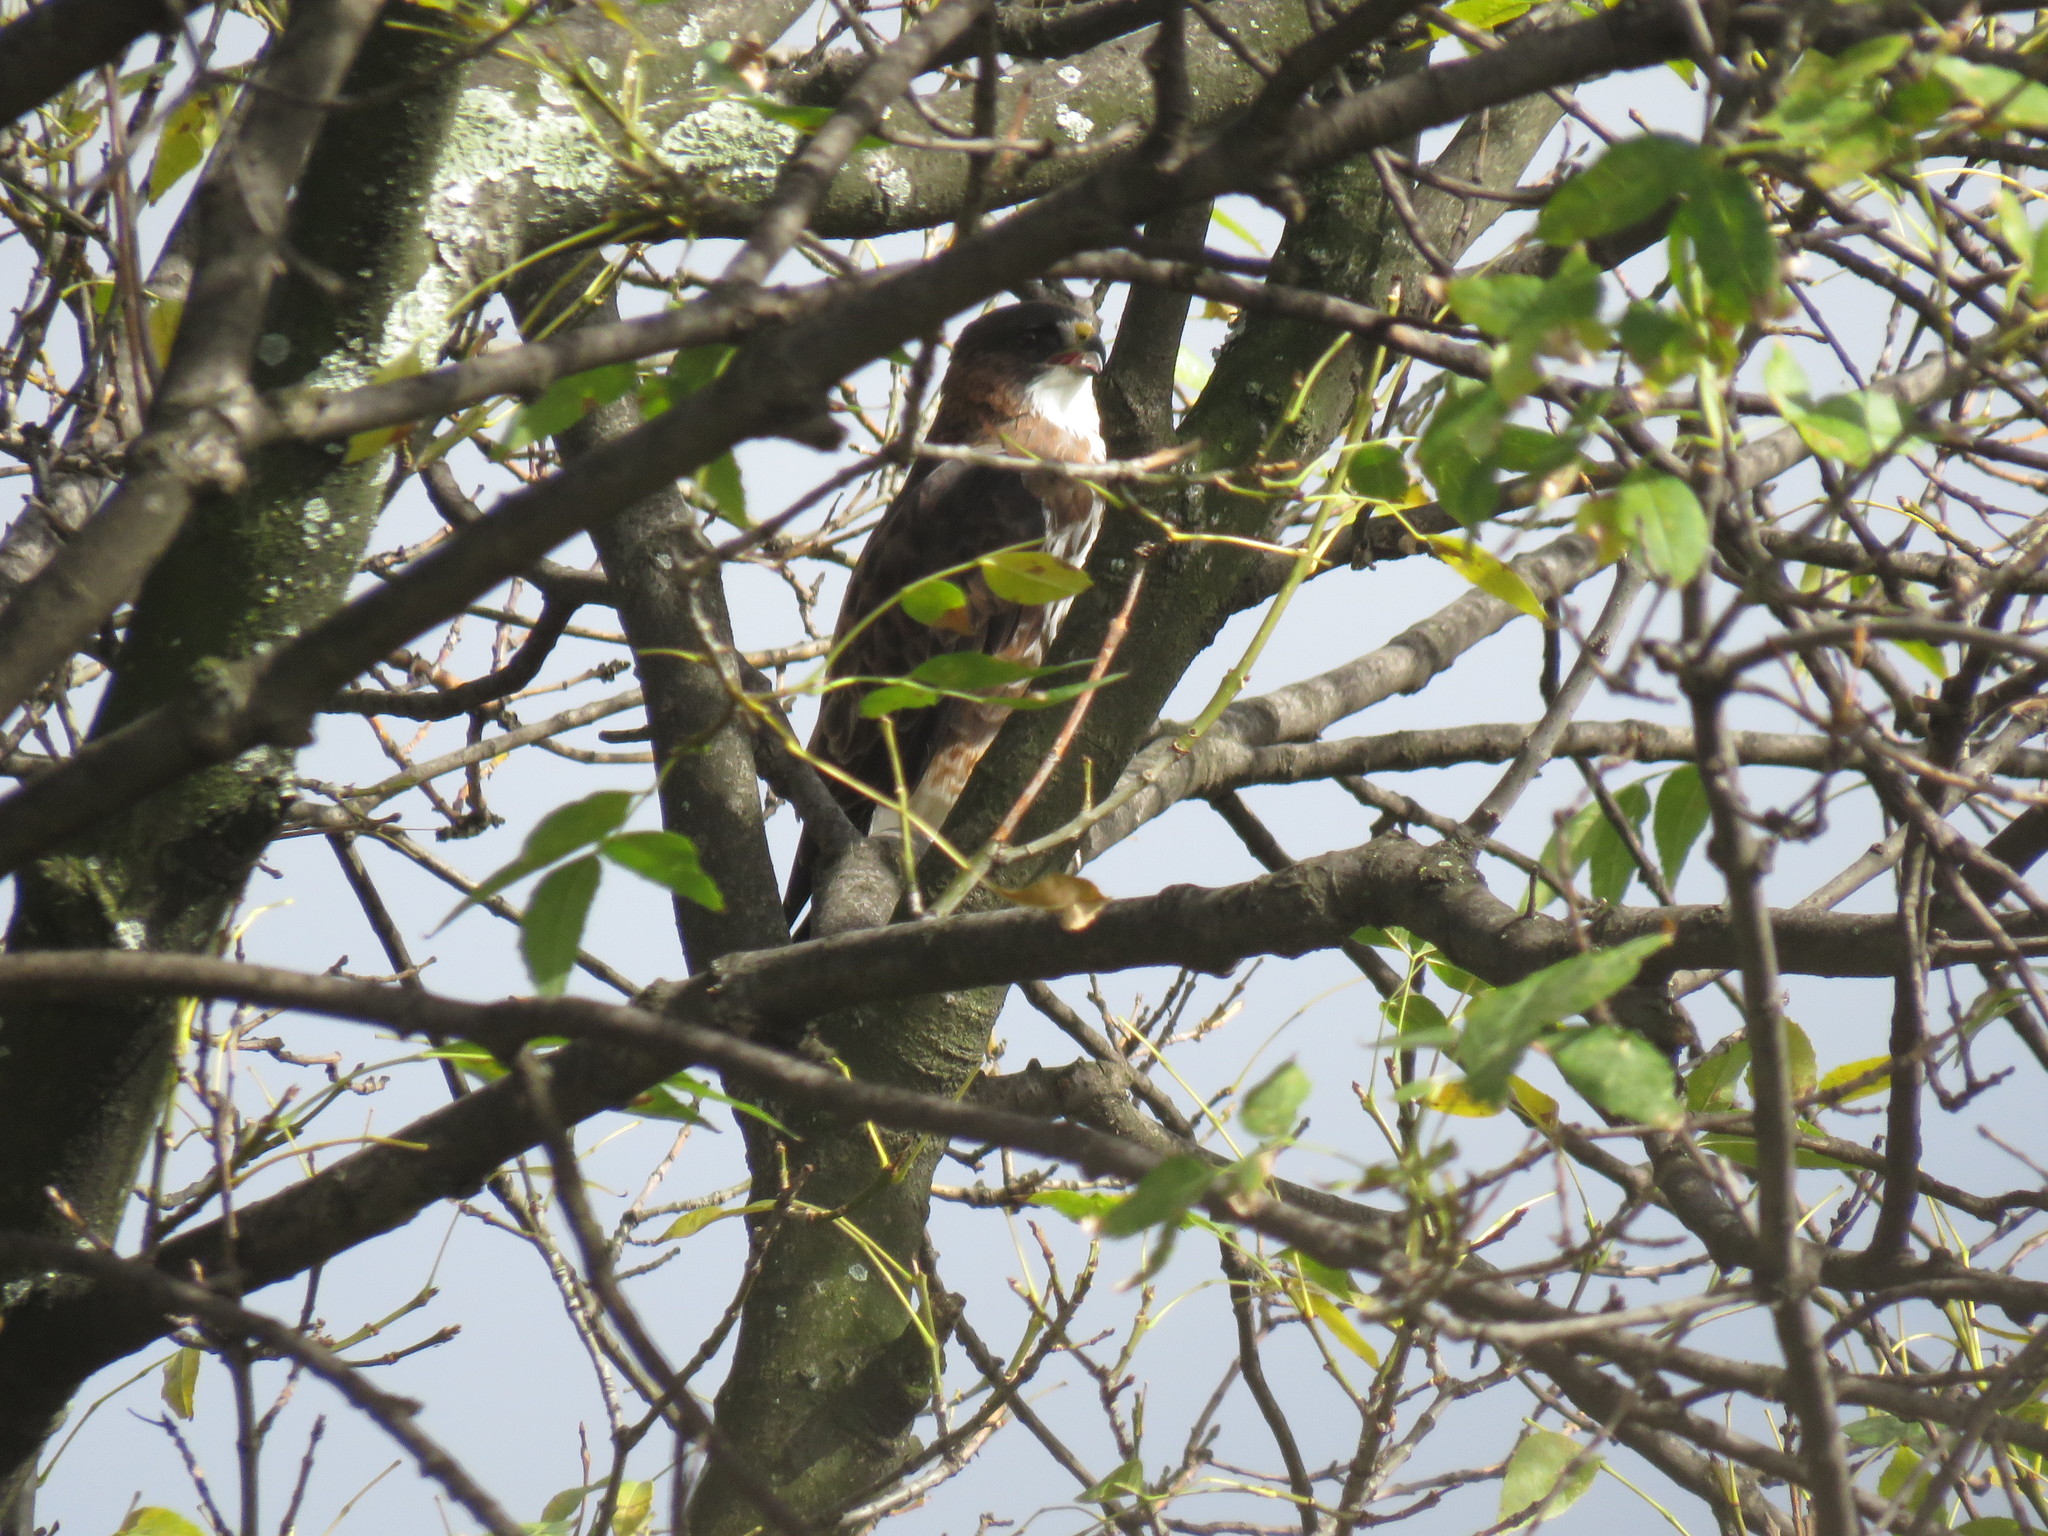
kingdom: Animalia
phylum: Chordata
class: Aves
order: Accipitriformes
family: Accipitridae
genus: Buteo
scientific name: Buteo albigula
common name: White-throated hawk
